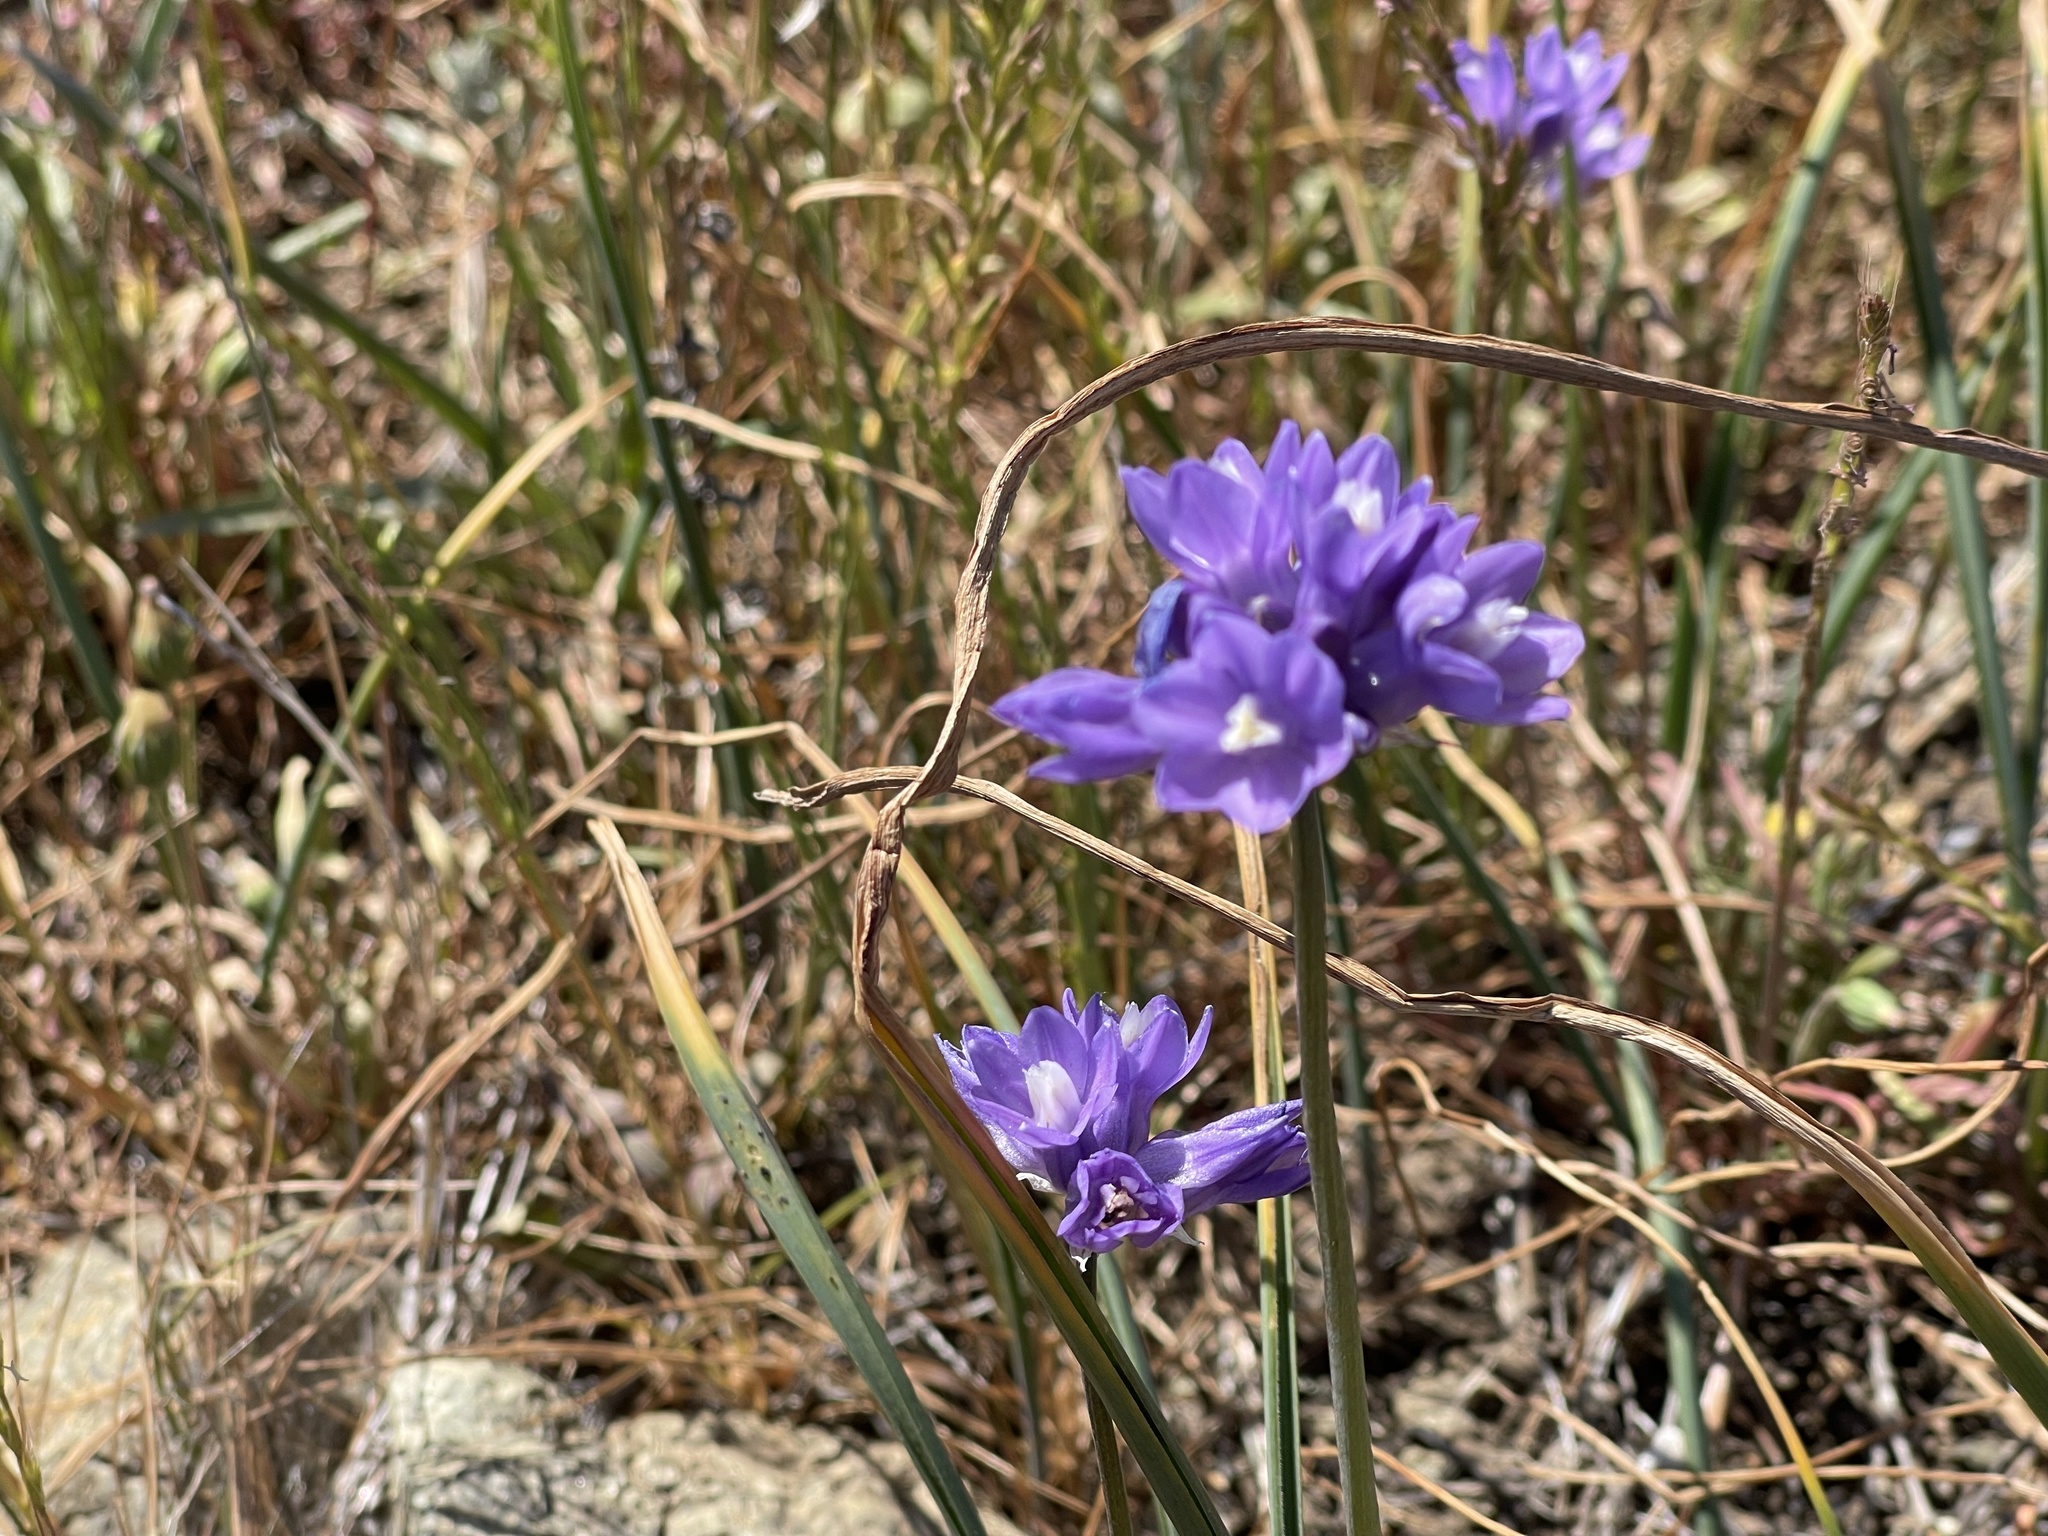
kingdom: Plantae
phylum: Tracheophyta
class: Liliopsida
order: Asparagales
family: Asparagaceae
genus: Dipterostemon
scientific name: Dipterostemon capitatus
